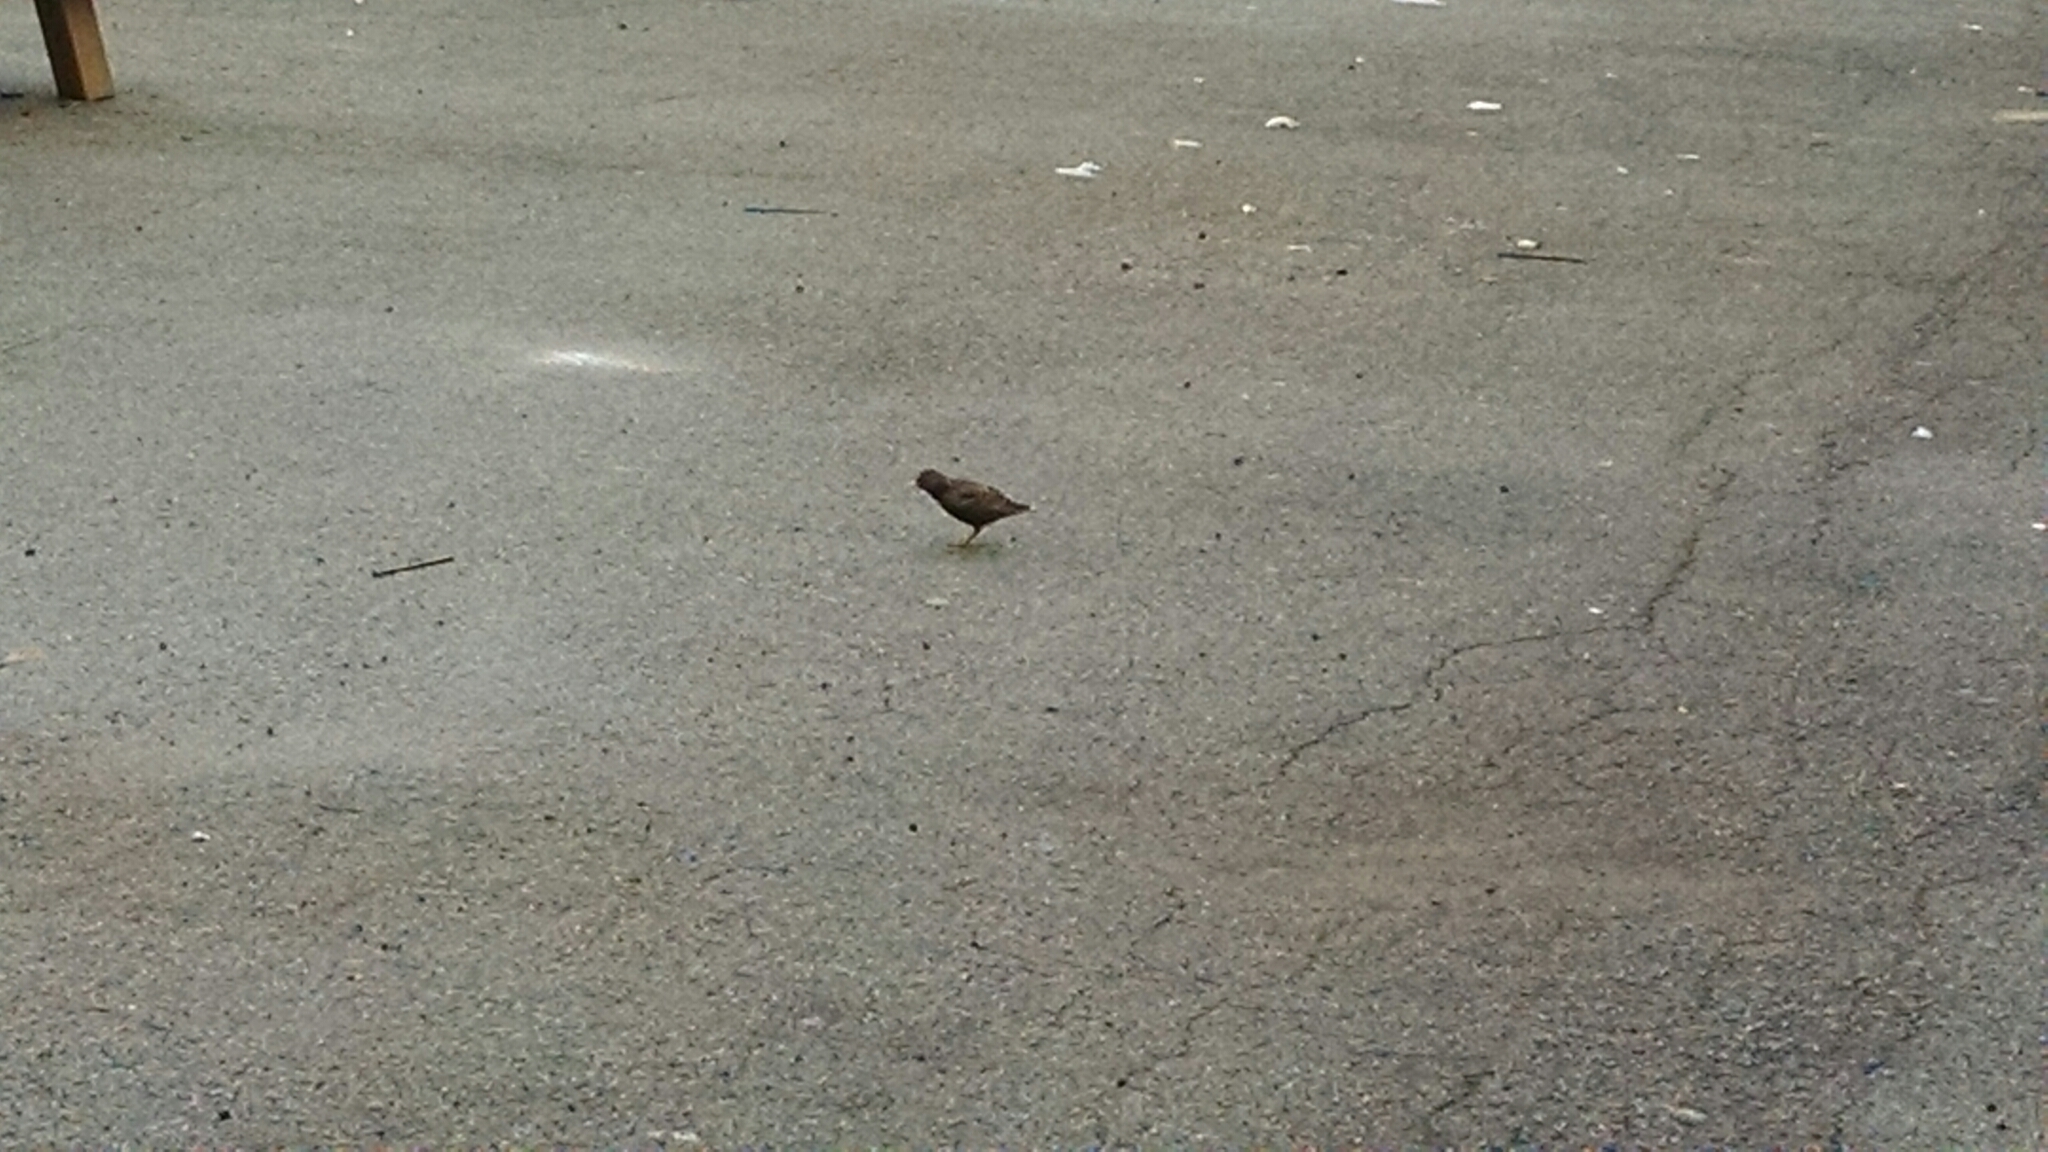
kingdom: Animalia
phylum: Chordata
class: Aves
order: Passeriformes
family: Sturnidae
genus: Sturnus
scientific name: Sturnus vulgaris
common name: Common starling
